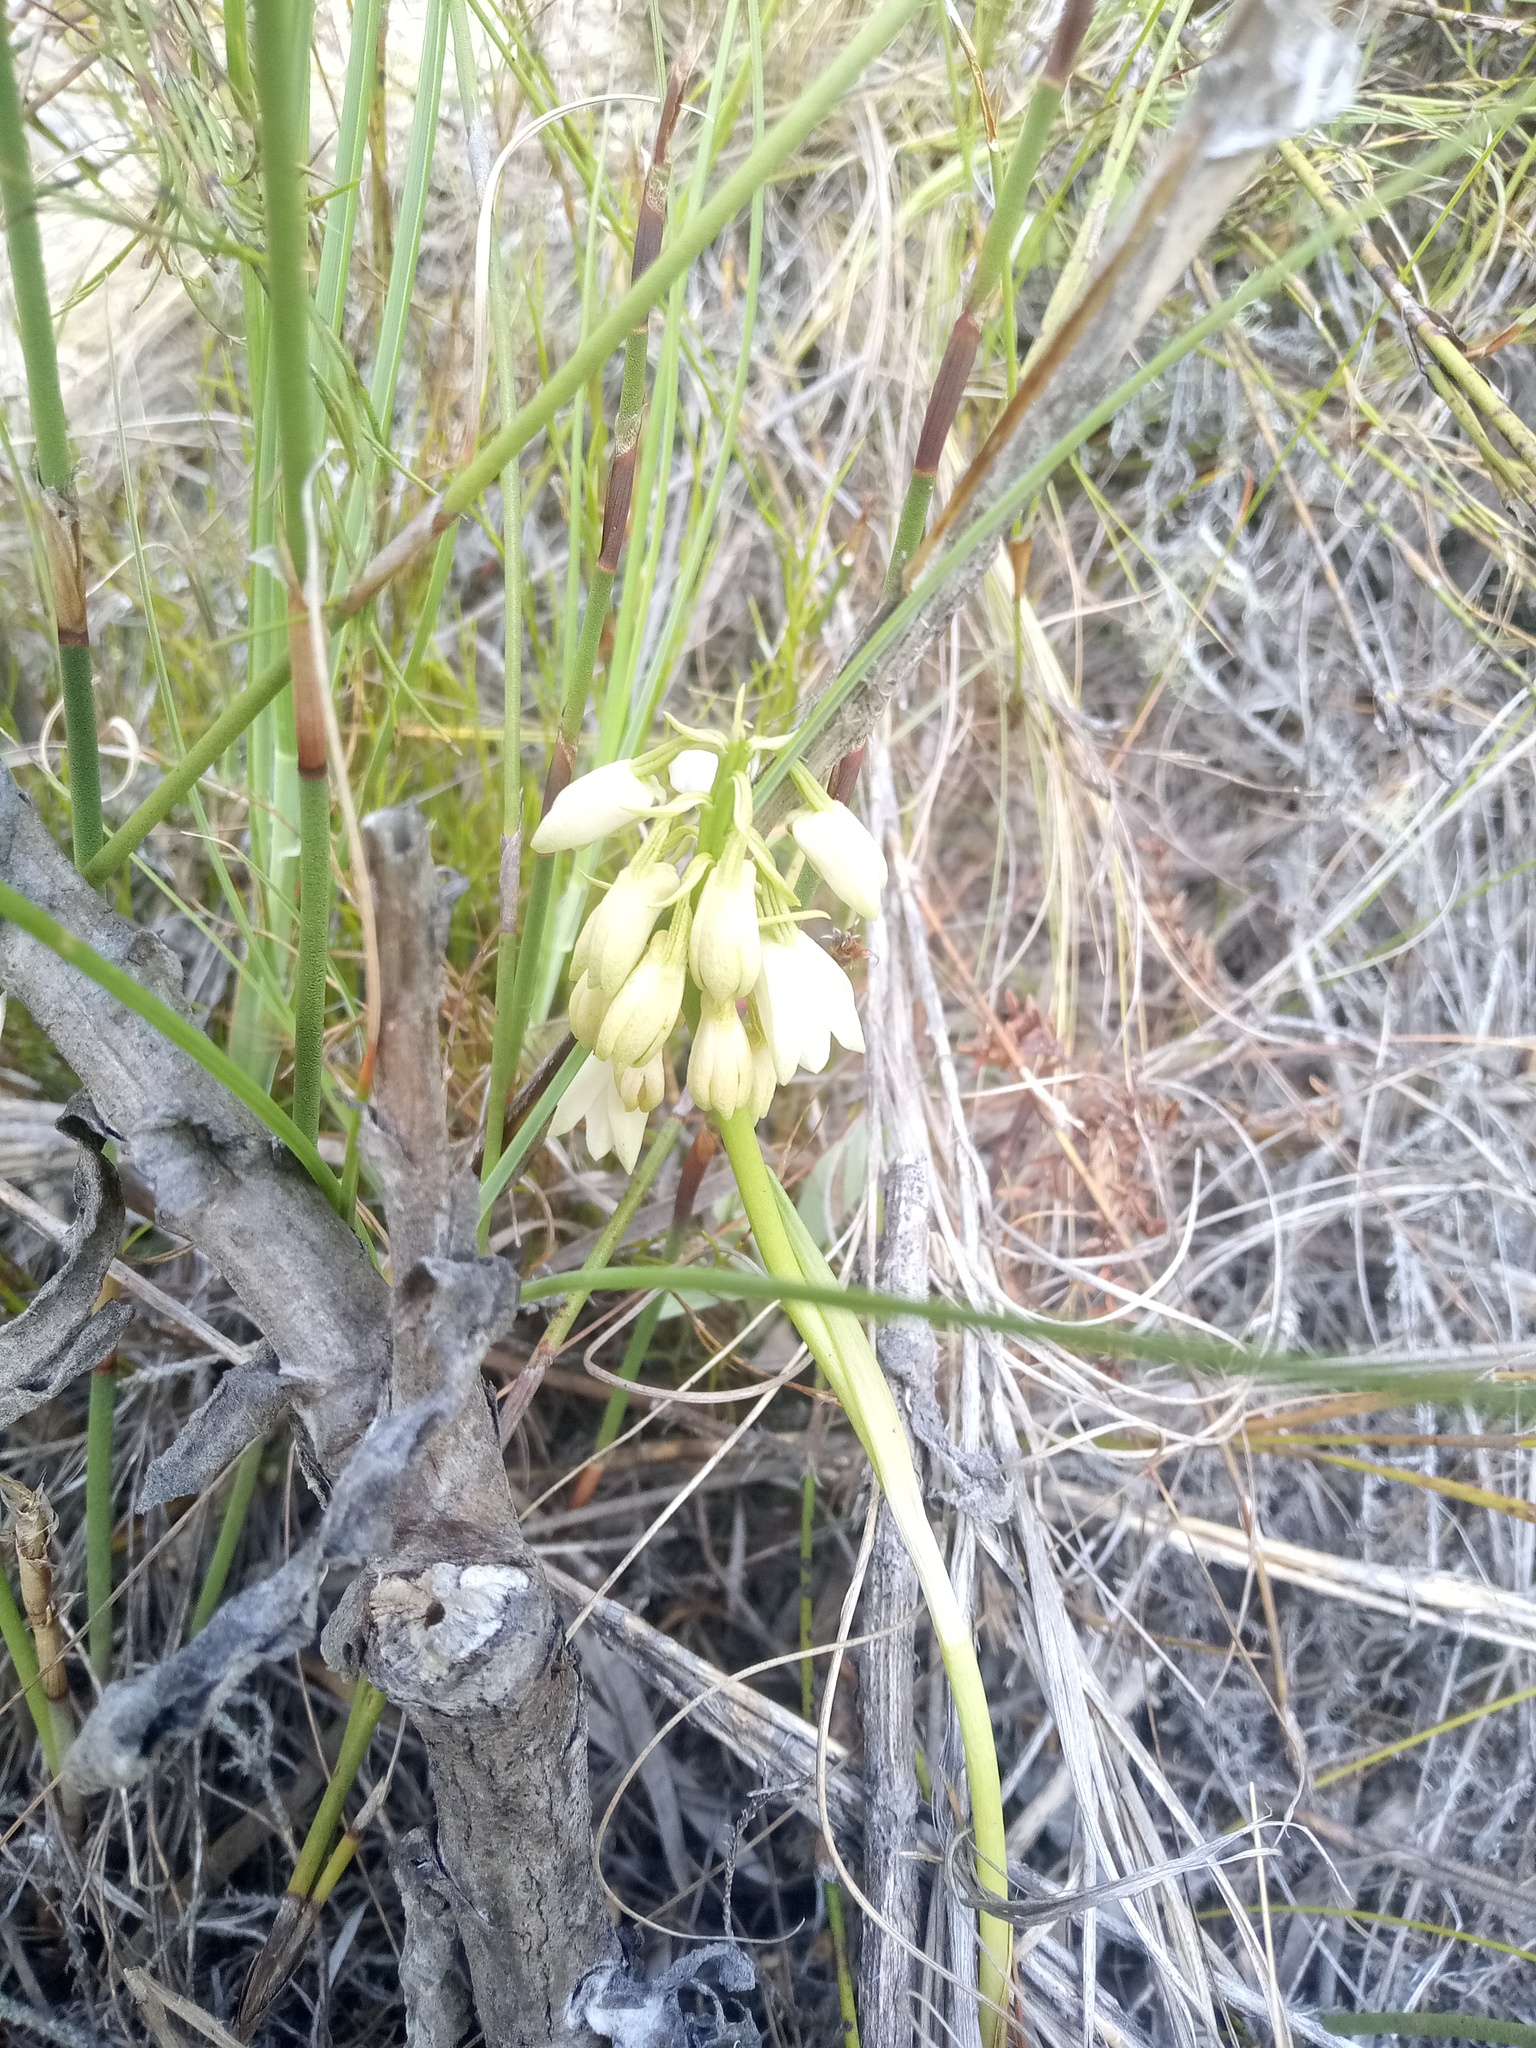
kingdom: Plantae
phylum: Tracheophyta
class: Liliopsida
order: Asparagales
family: Orchidaceae
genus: Eulophia
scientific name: Eulophia aculeata
